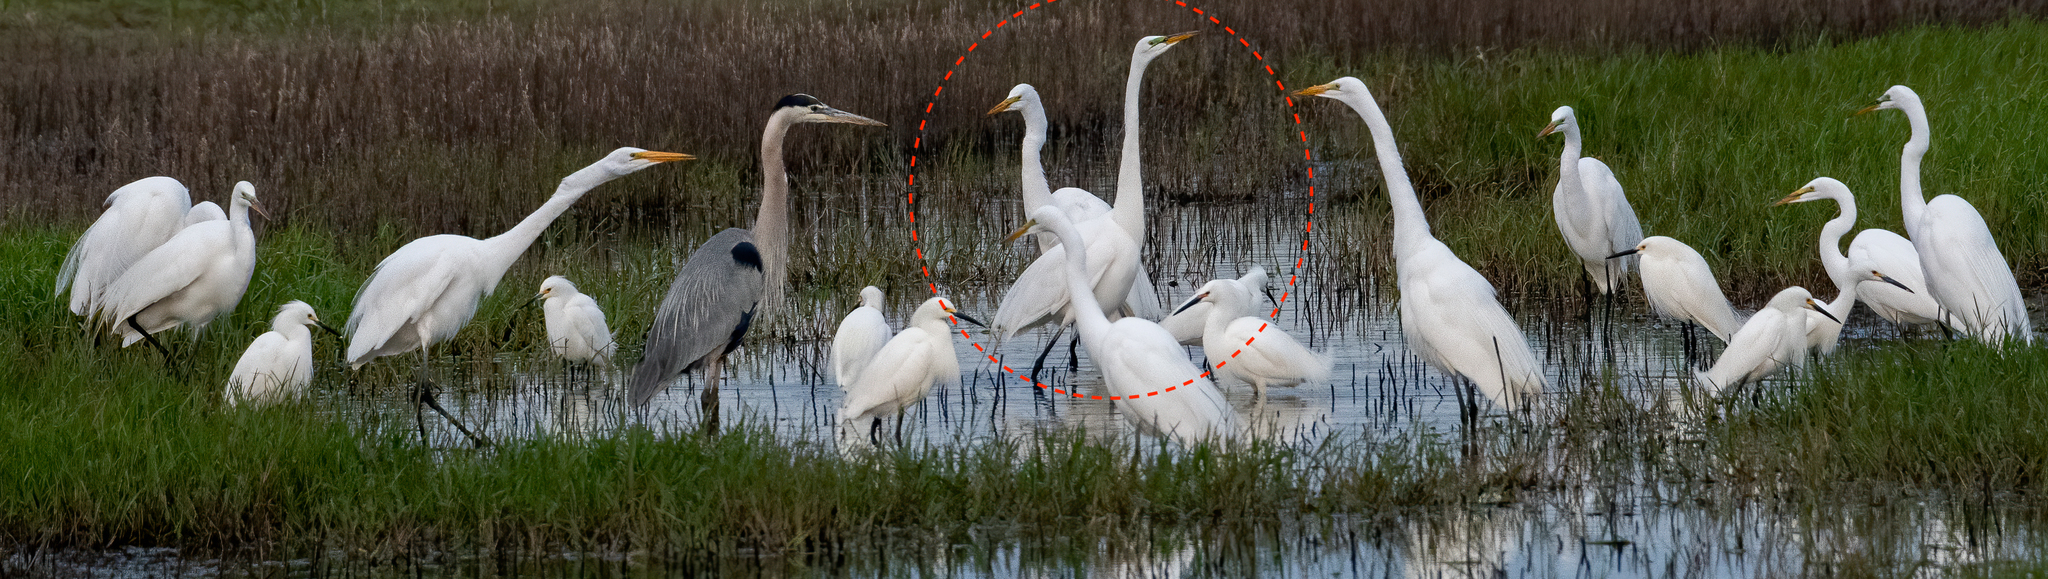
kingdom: Animalia
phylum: Chordata
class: Aves
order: Pelecaniformes
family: Ardeidae
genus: Ardea
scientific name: Ardea alba
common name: Great egret
